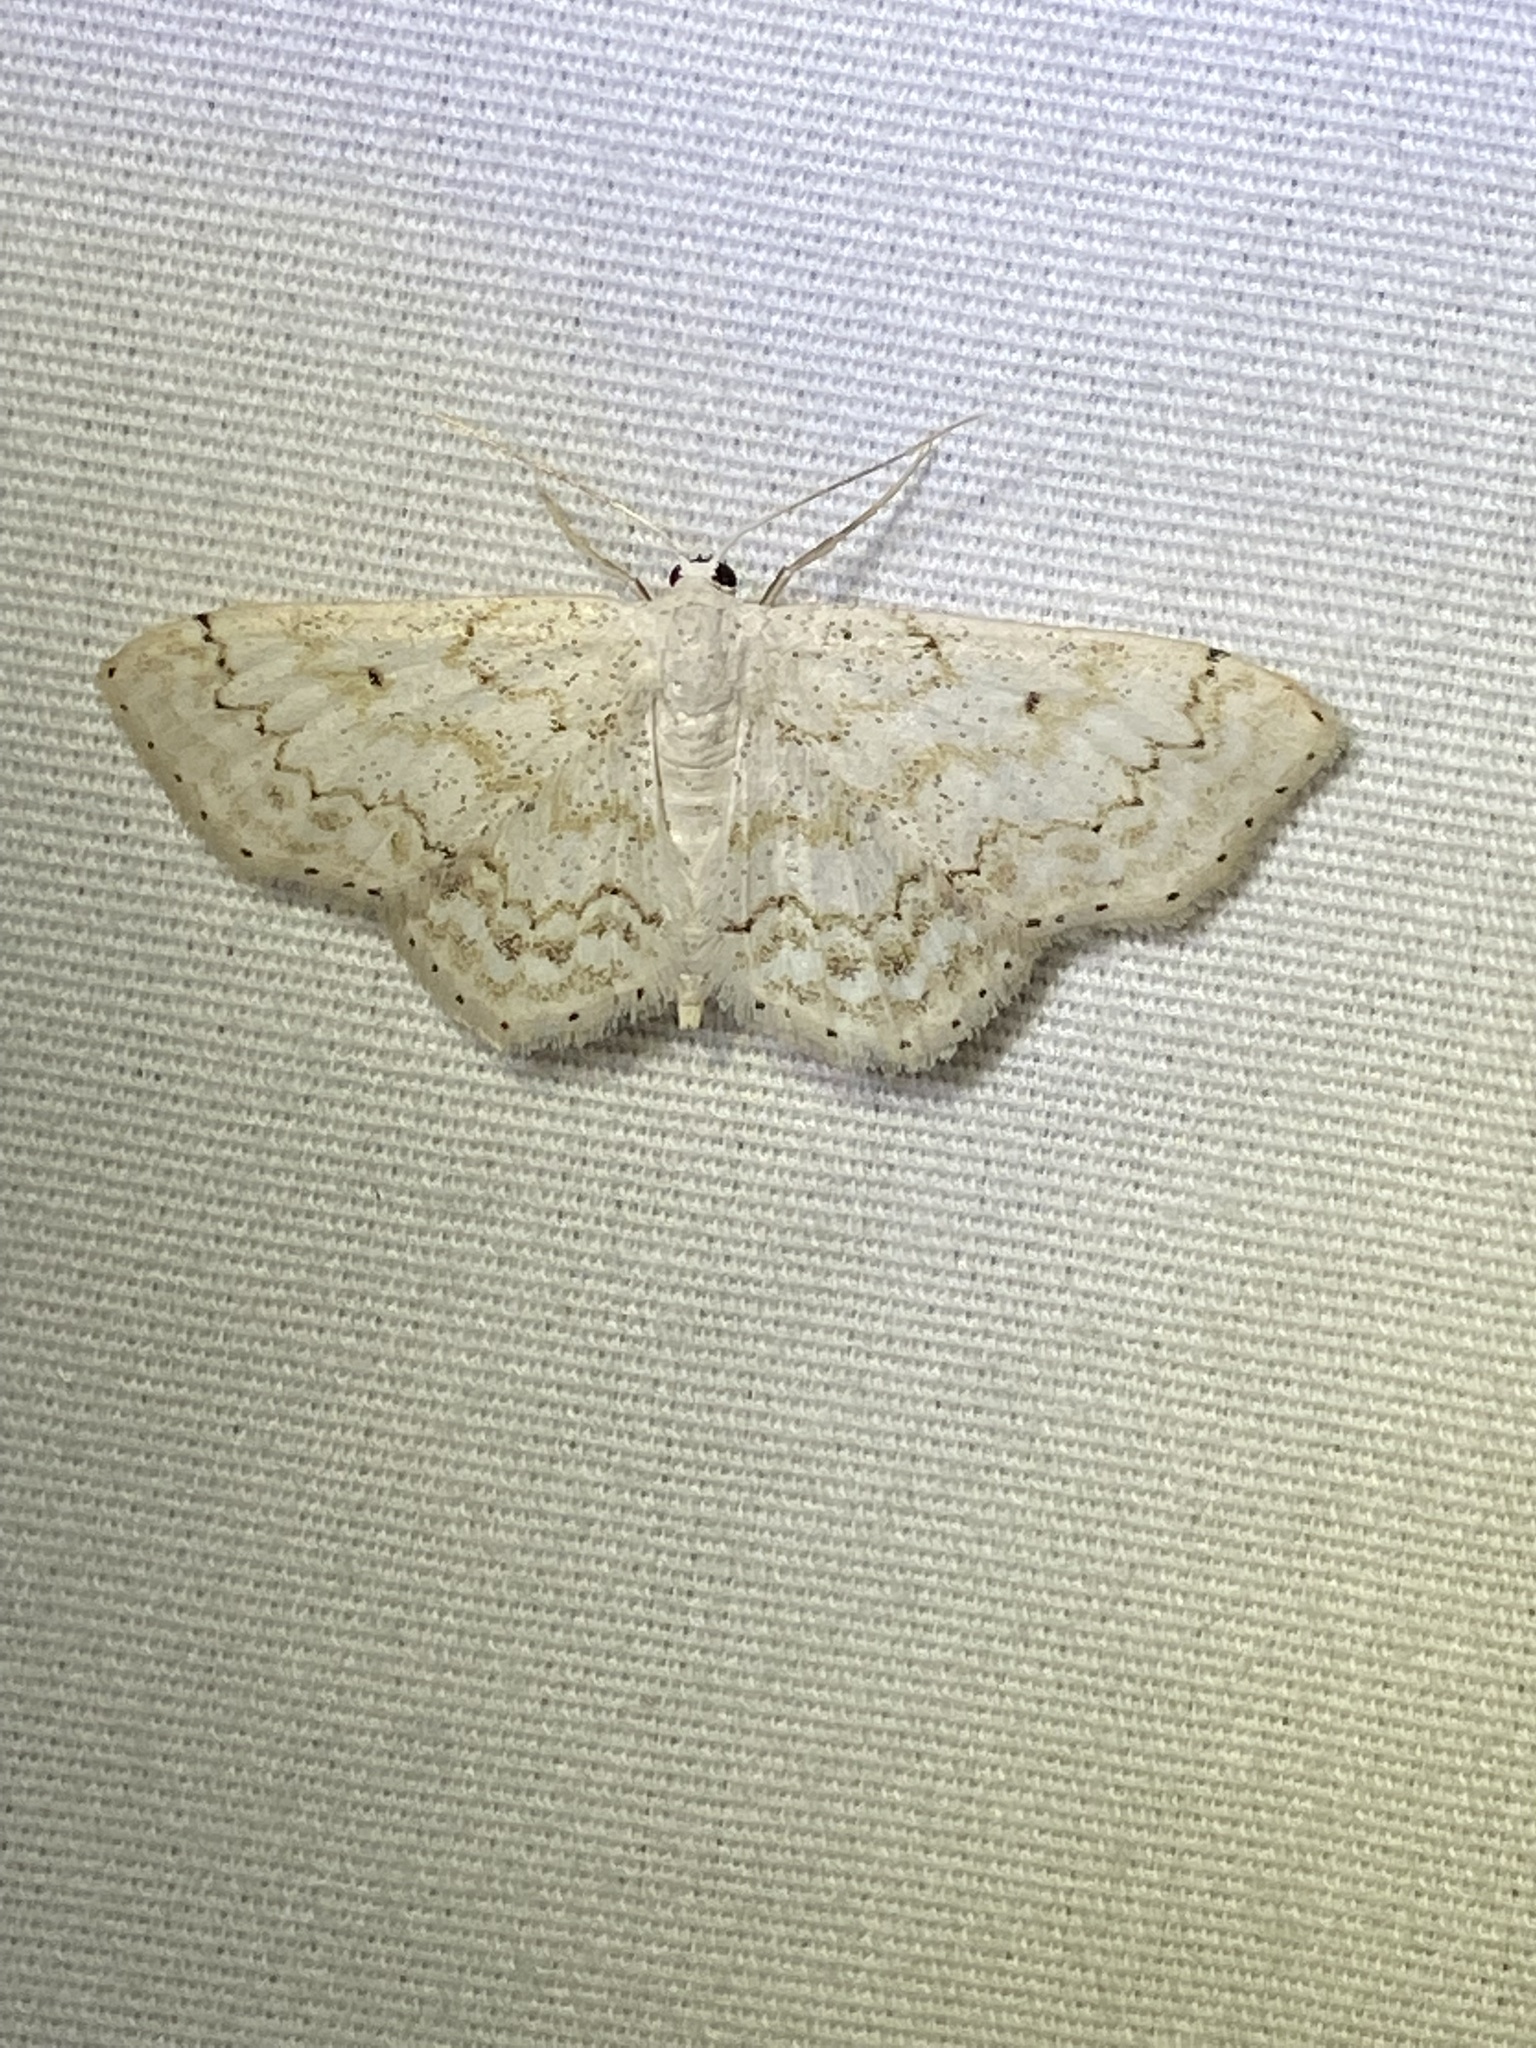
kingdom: Animalia
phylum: Arthropoda
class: Insecta
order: Lepidoptera
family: Geometridae
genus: Idaea
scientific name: Idaea obfusaria
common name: Rippled wave
